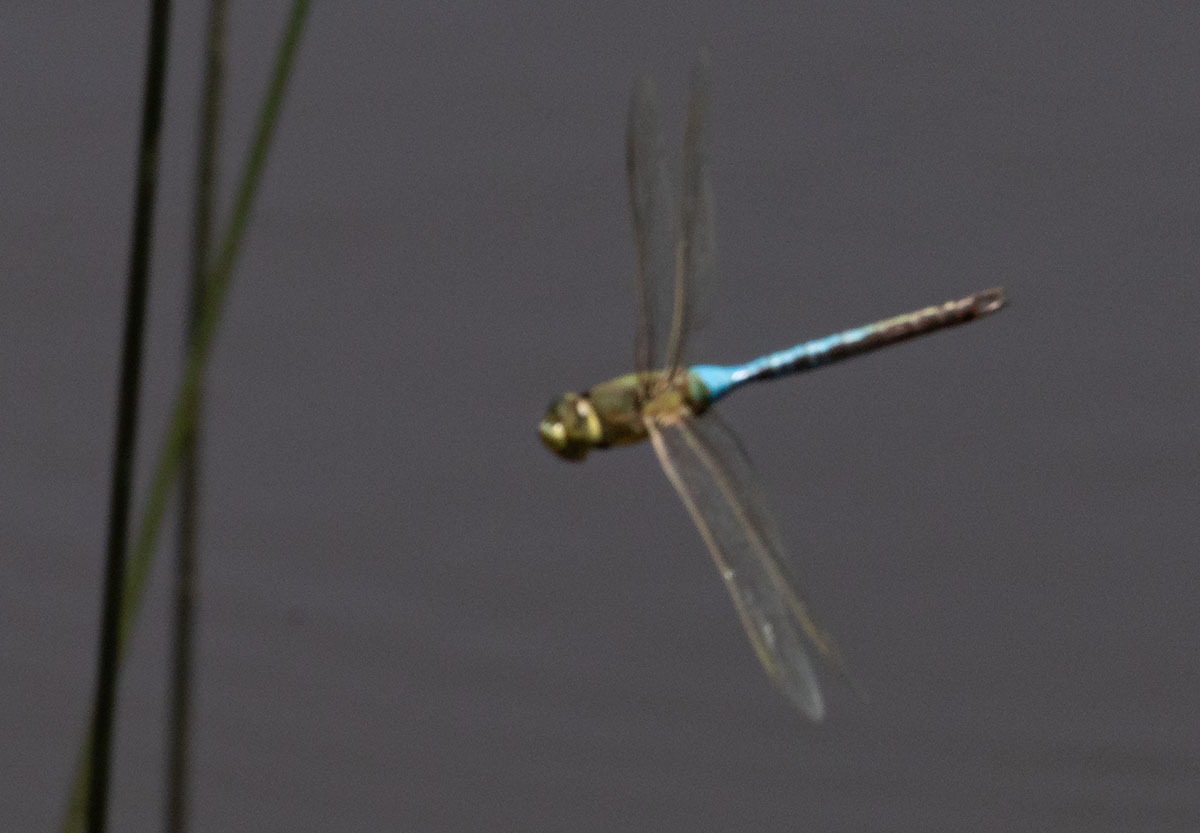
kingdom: Animalia
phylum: Arthropoda
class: Insecta
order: Odonata
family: Aeshnidae
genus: Anax
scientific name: Anax junius
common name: Common green darner
